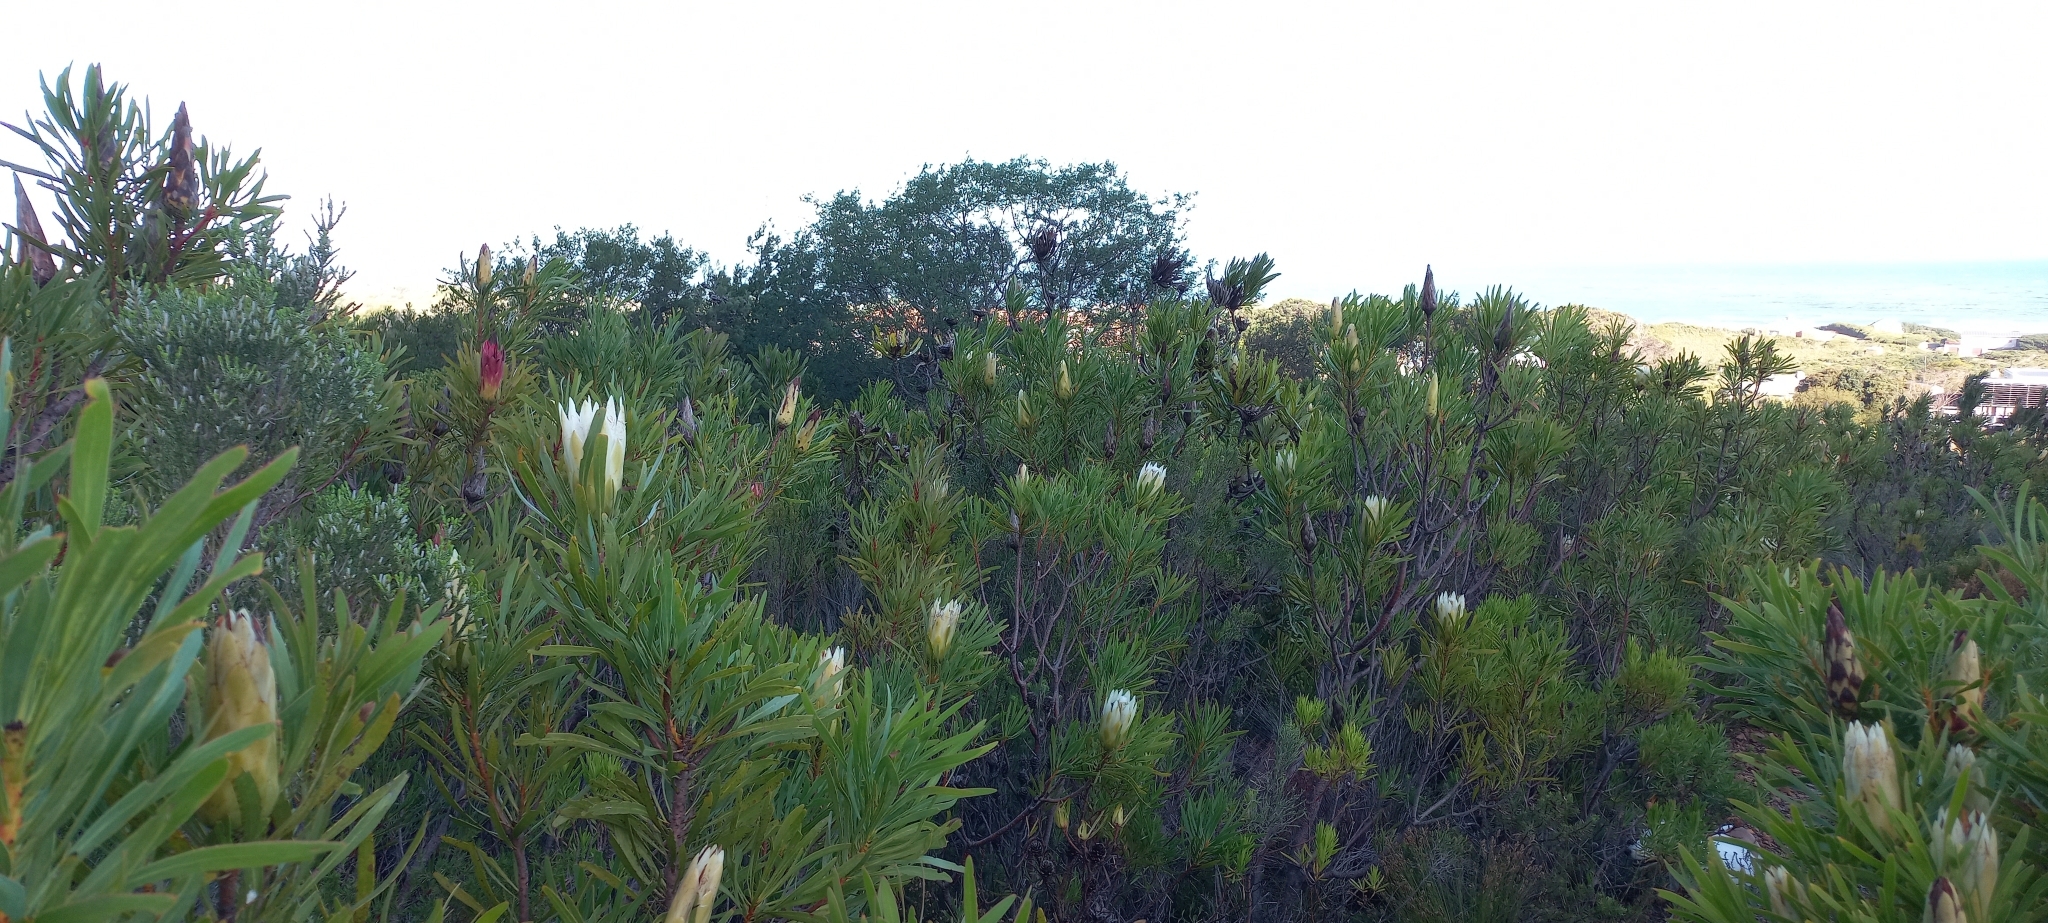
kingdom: Plantae
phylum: Tracheophyta
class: Magnoliopsida
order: Proteales
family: Proteaceae
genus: Protea
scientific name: Protea repens
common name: Sugarbush
